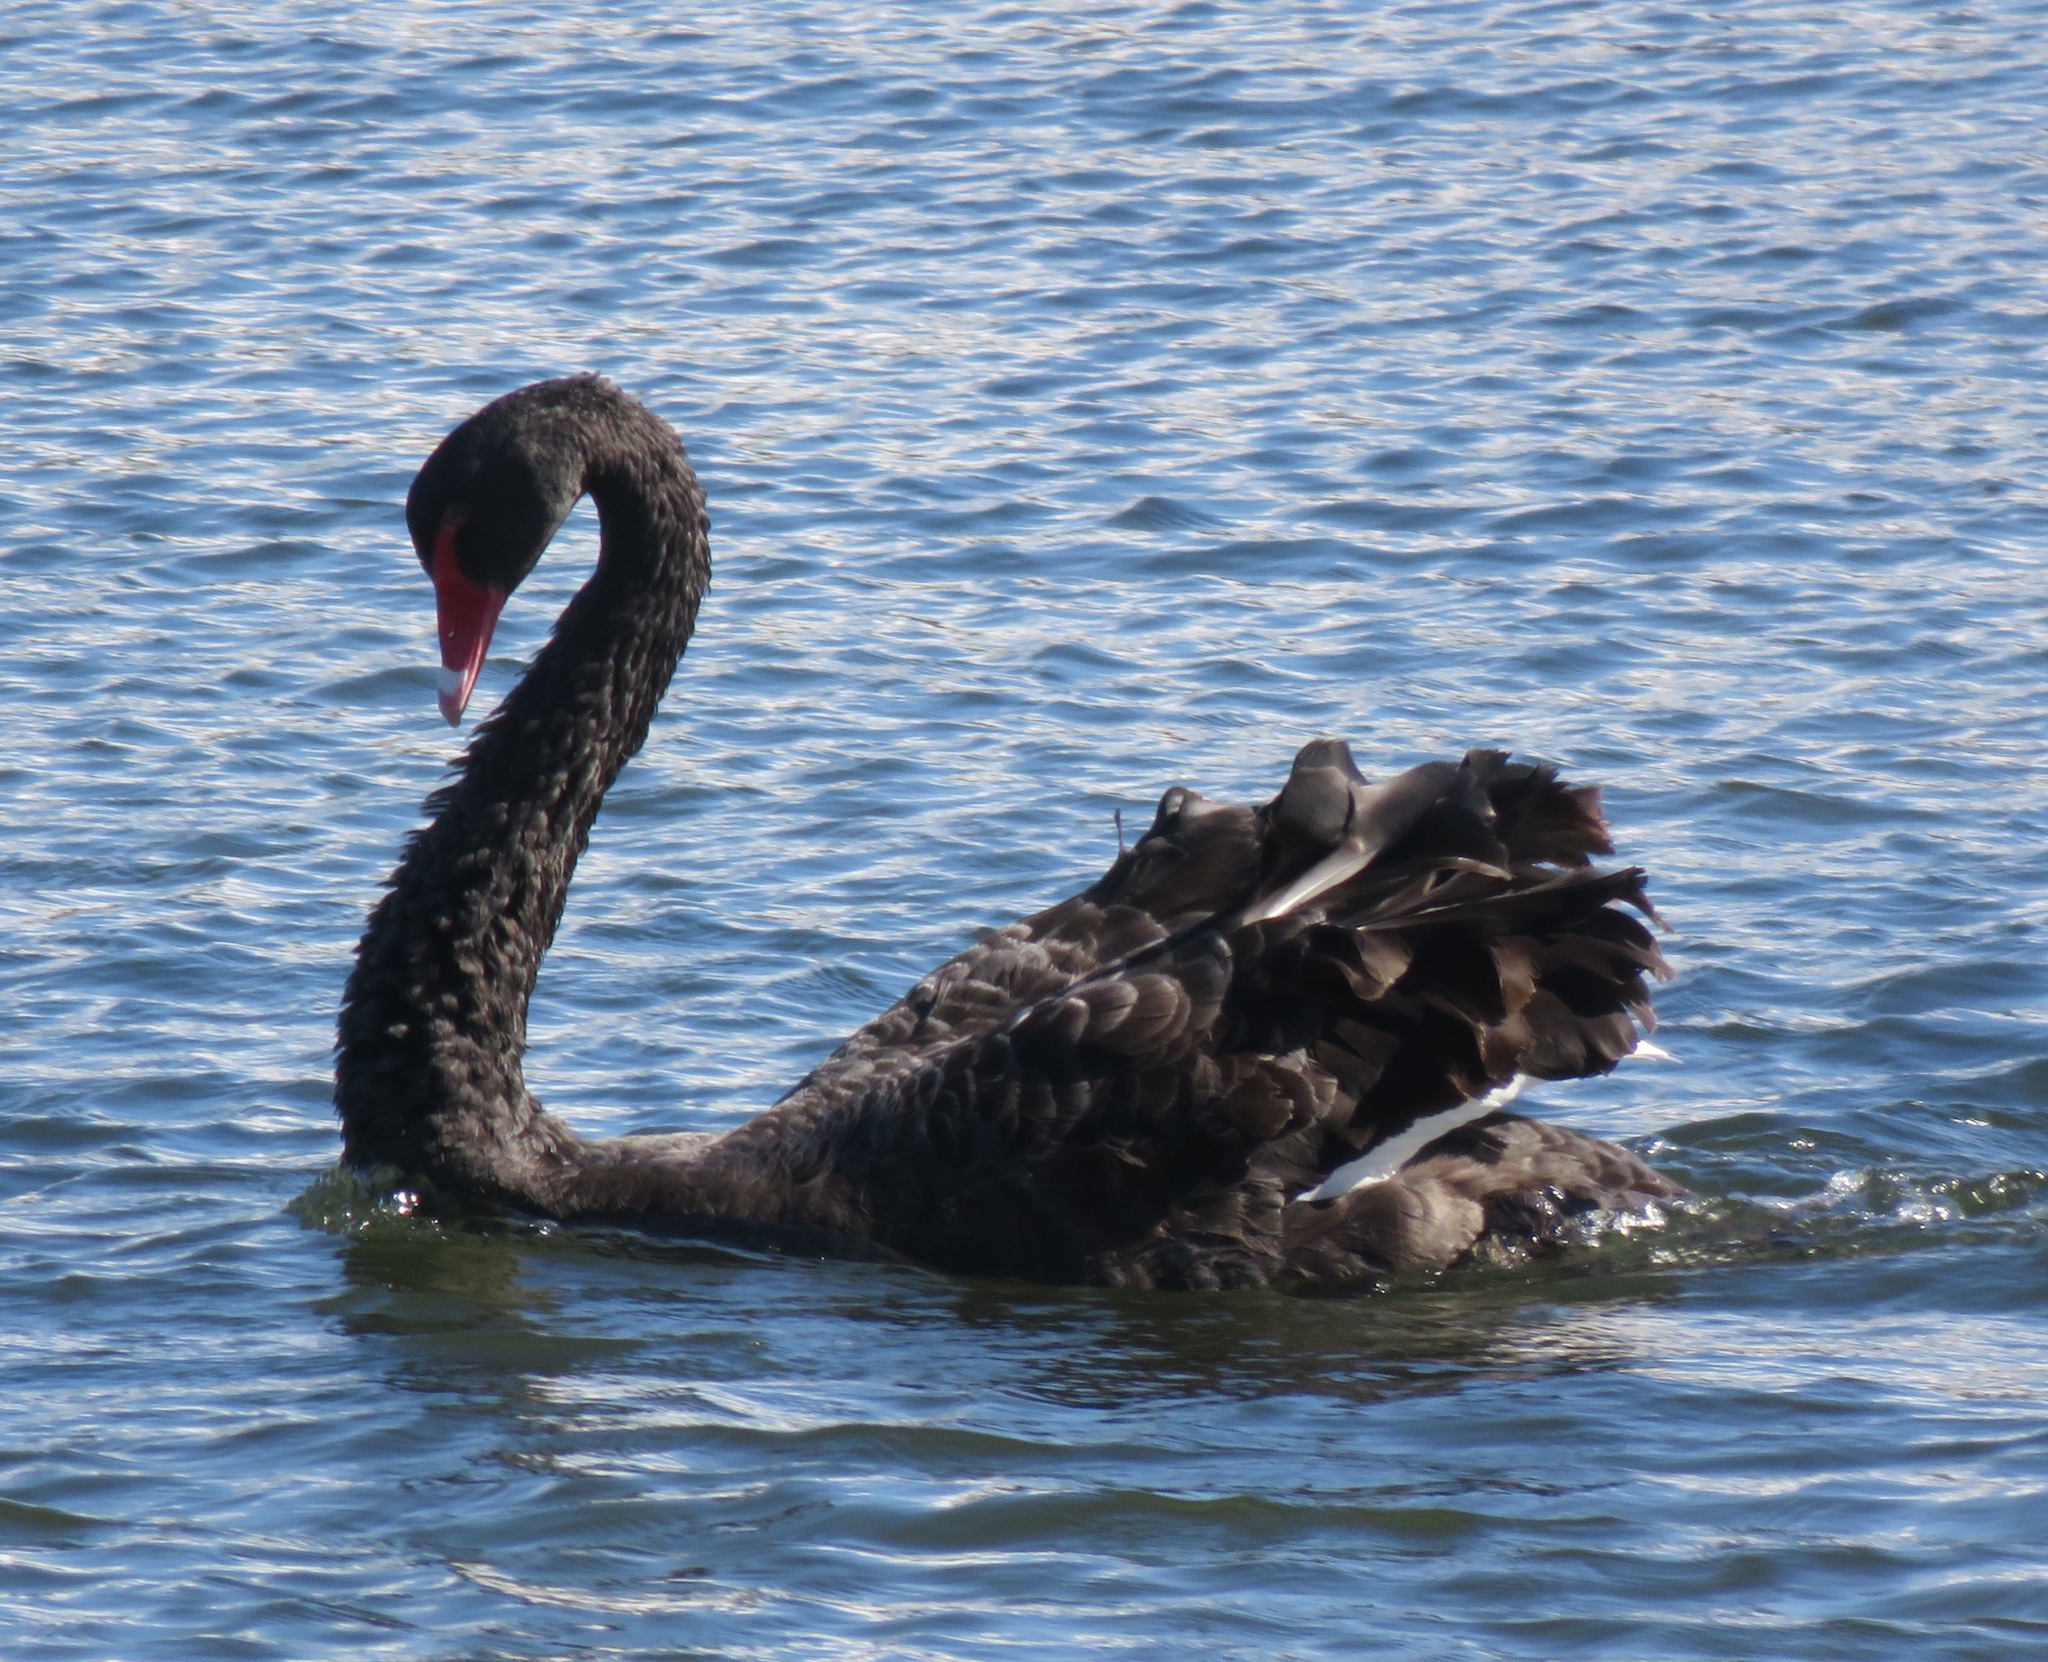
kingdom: Animalia
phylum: Chordata
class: Aves
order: Anseriformes
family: Anatidae
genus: Cygnus
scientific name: Cygnus atratus
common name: Black swan
